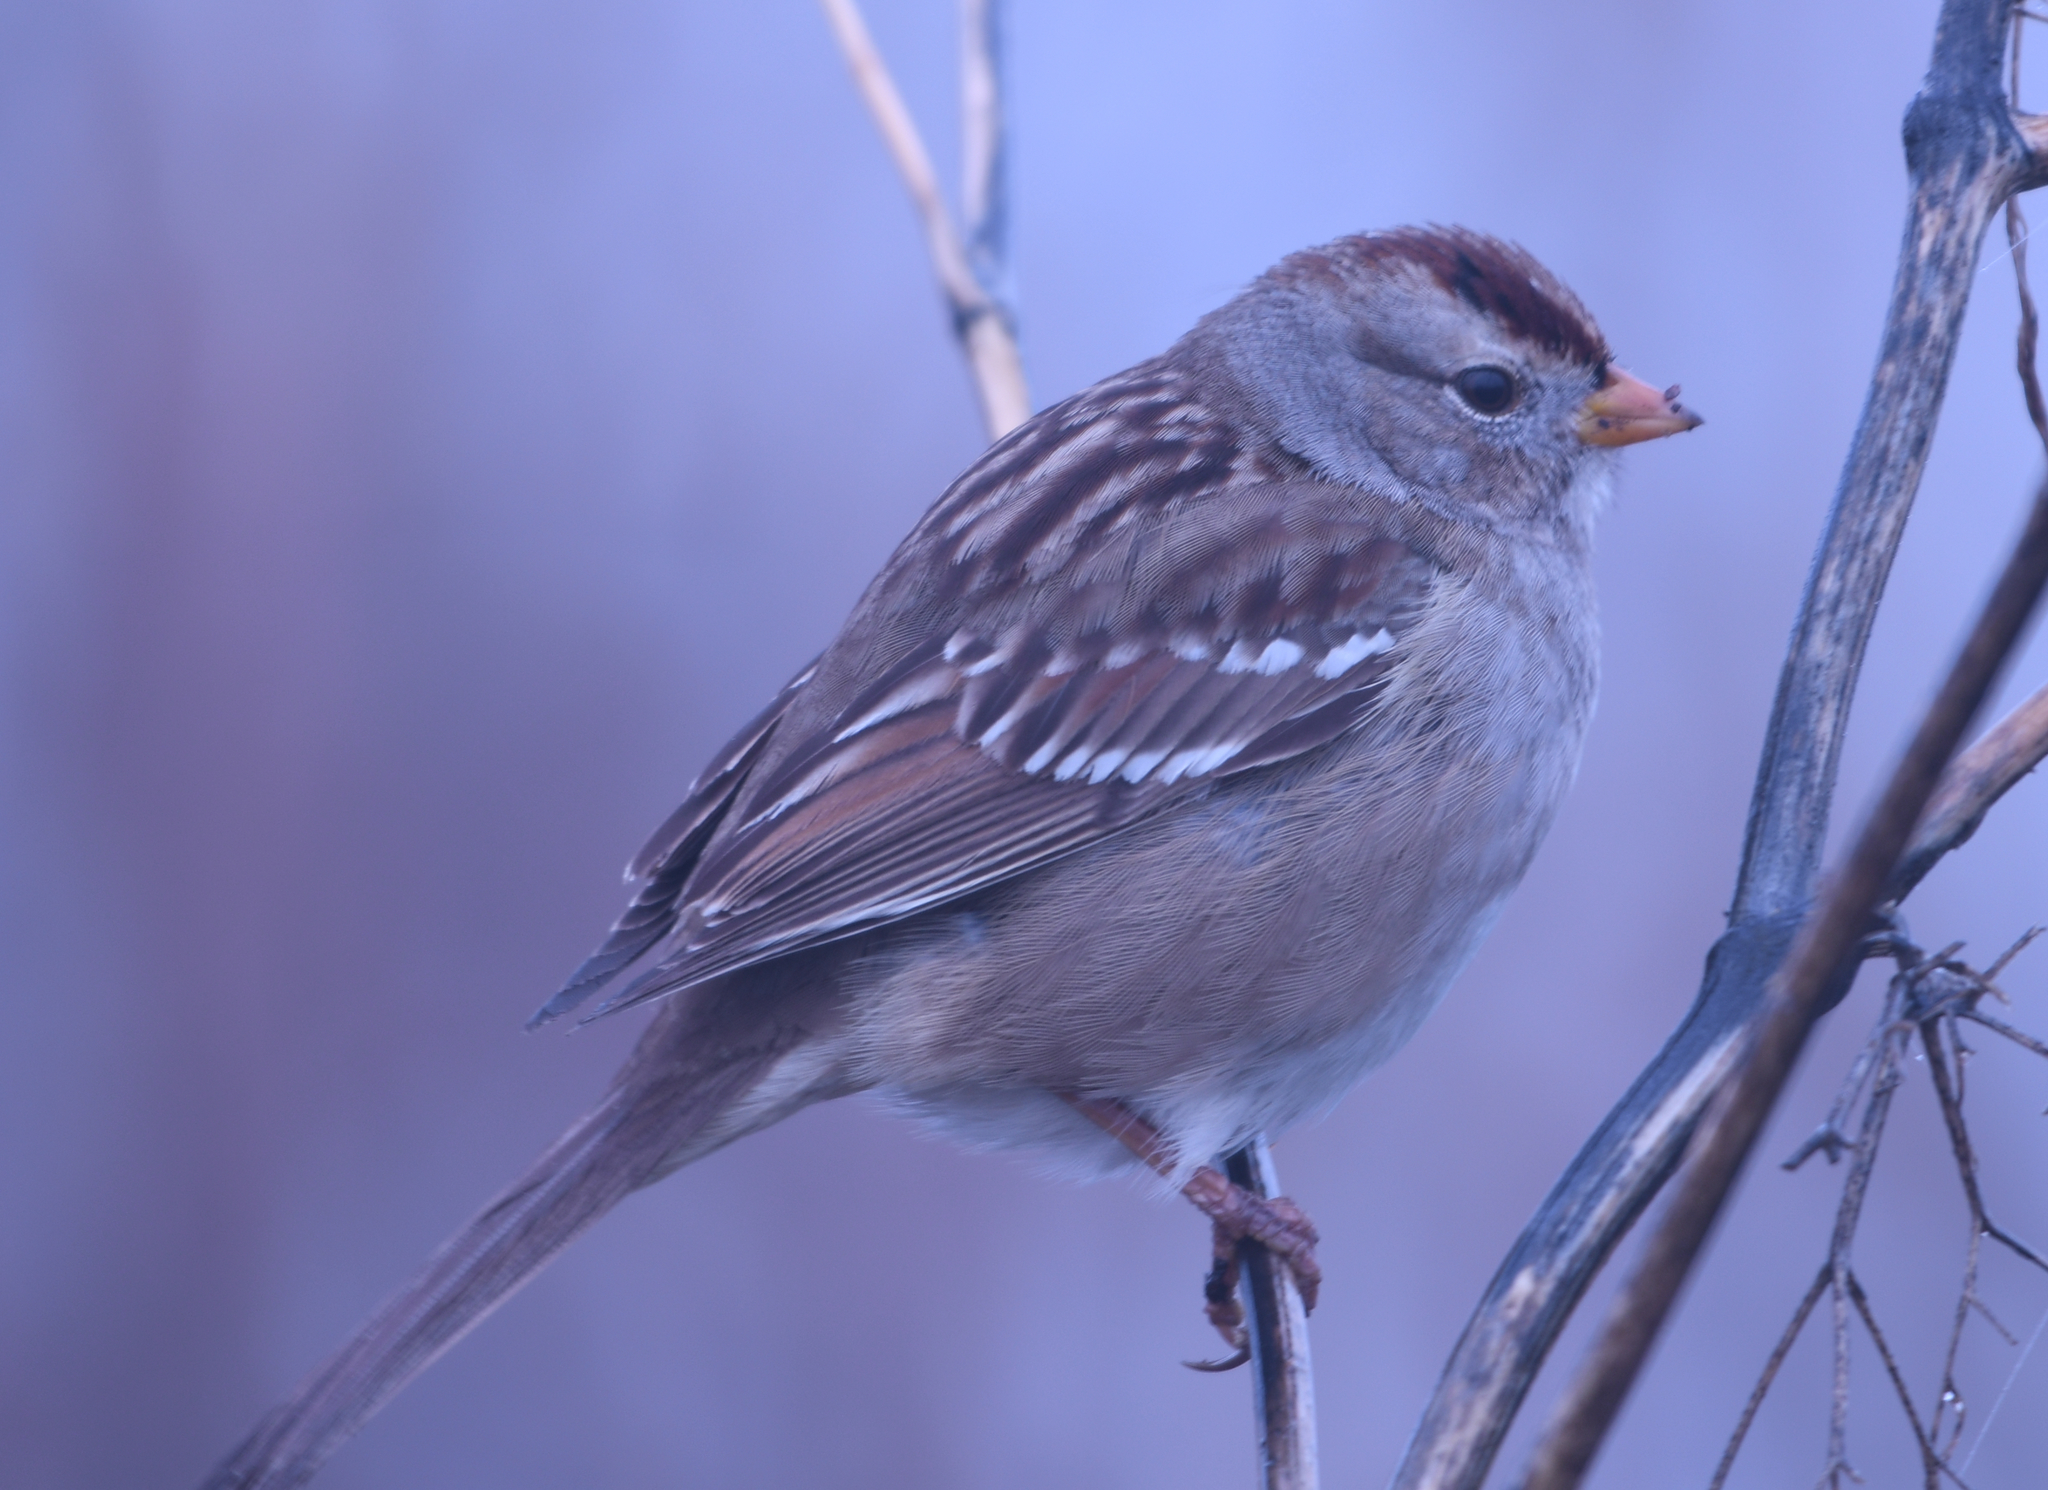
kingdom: Animalia
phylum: Chordata
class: Aves
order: Passeriformes
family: Passerellidae
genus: Zonotrichia
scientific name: Zonotrichia leucophrys
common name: White-crowned sparrow
